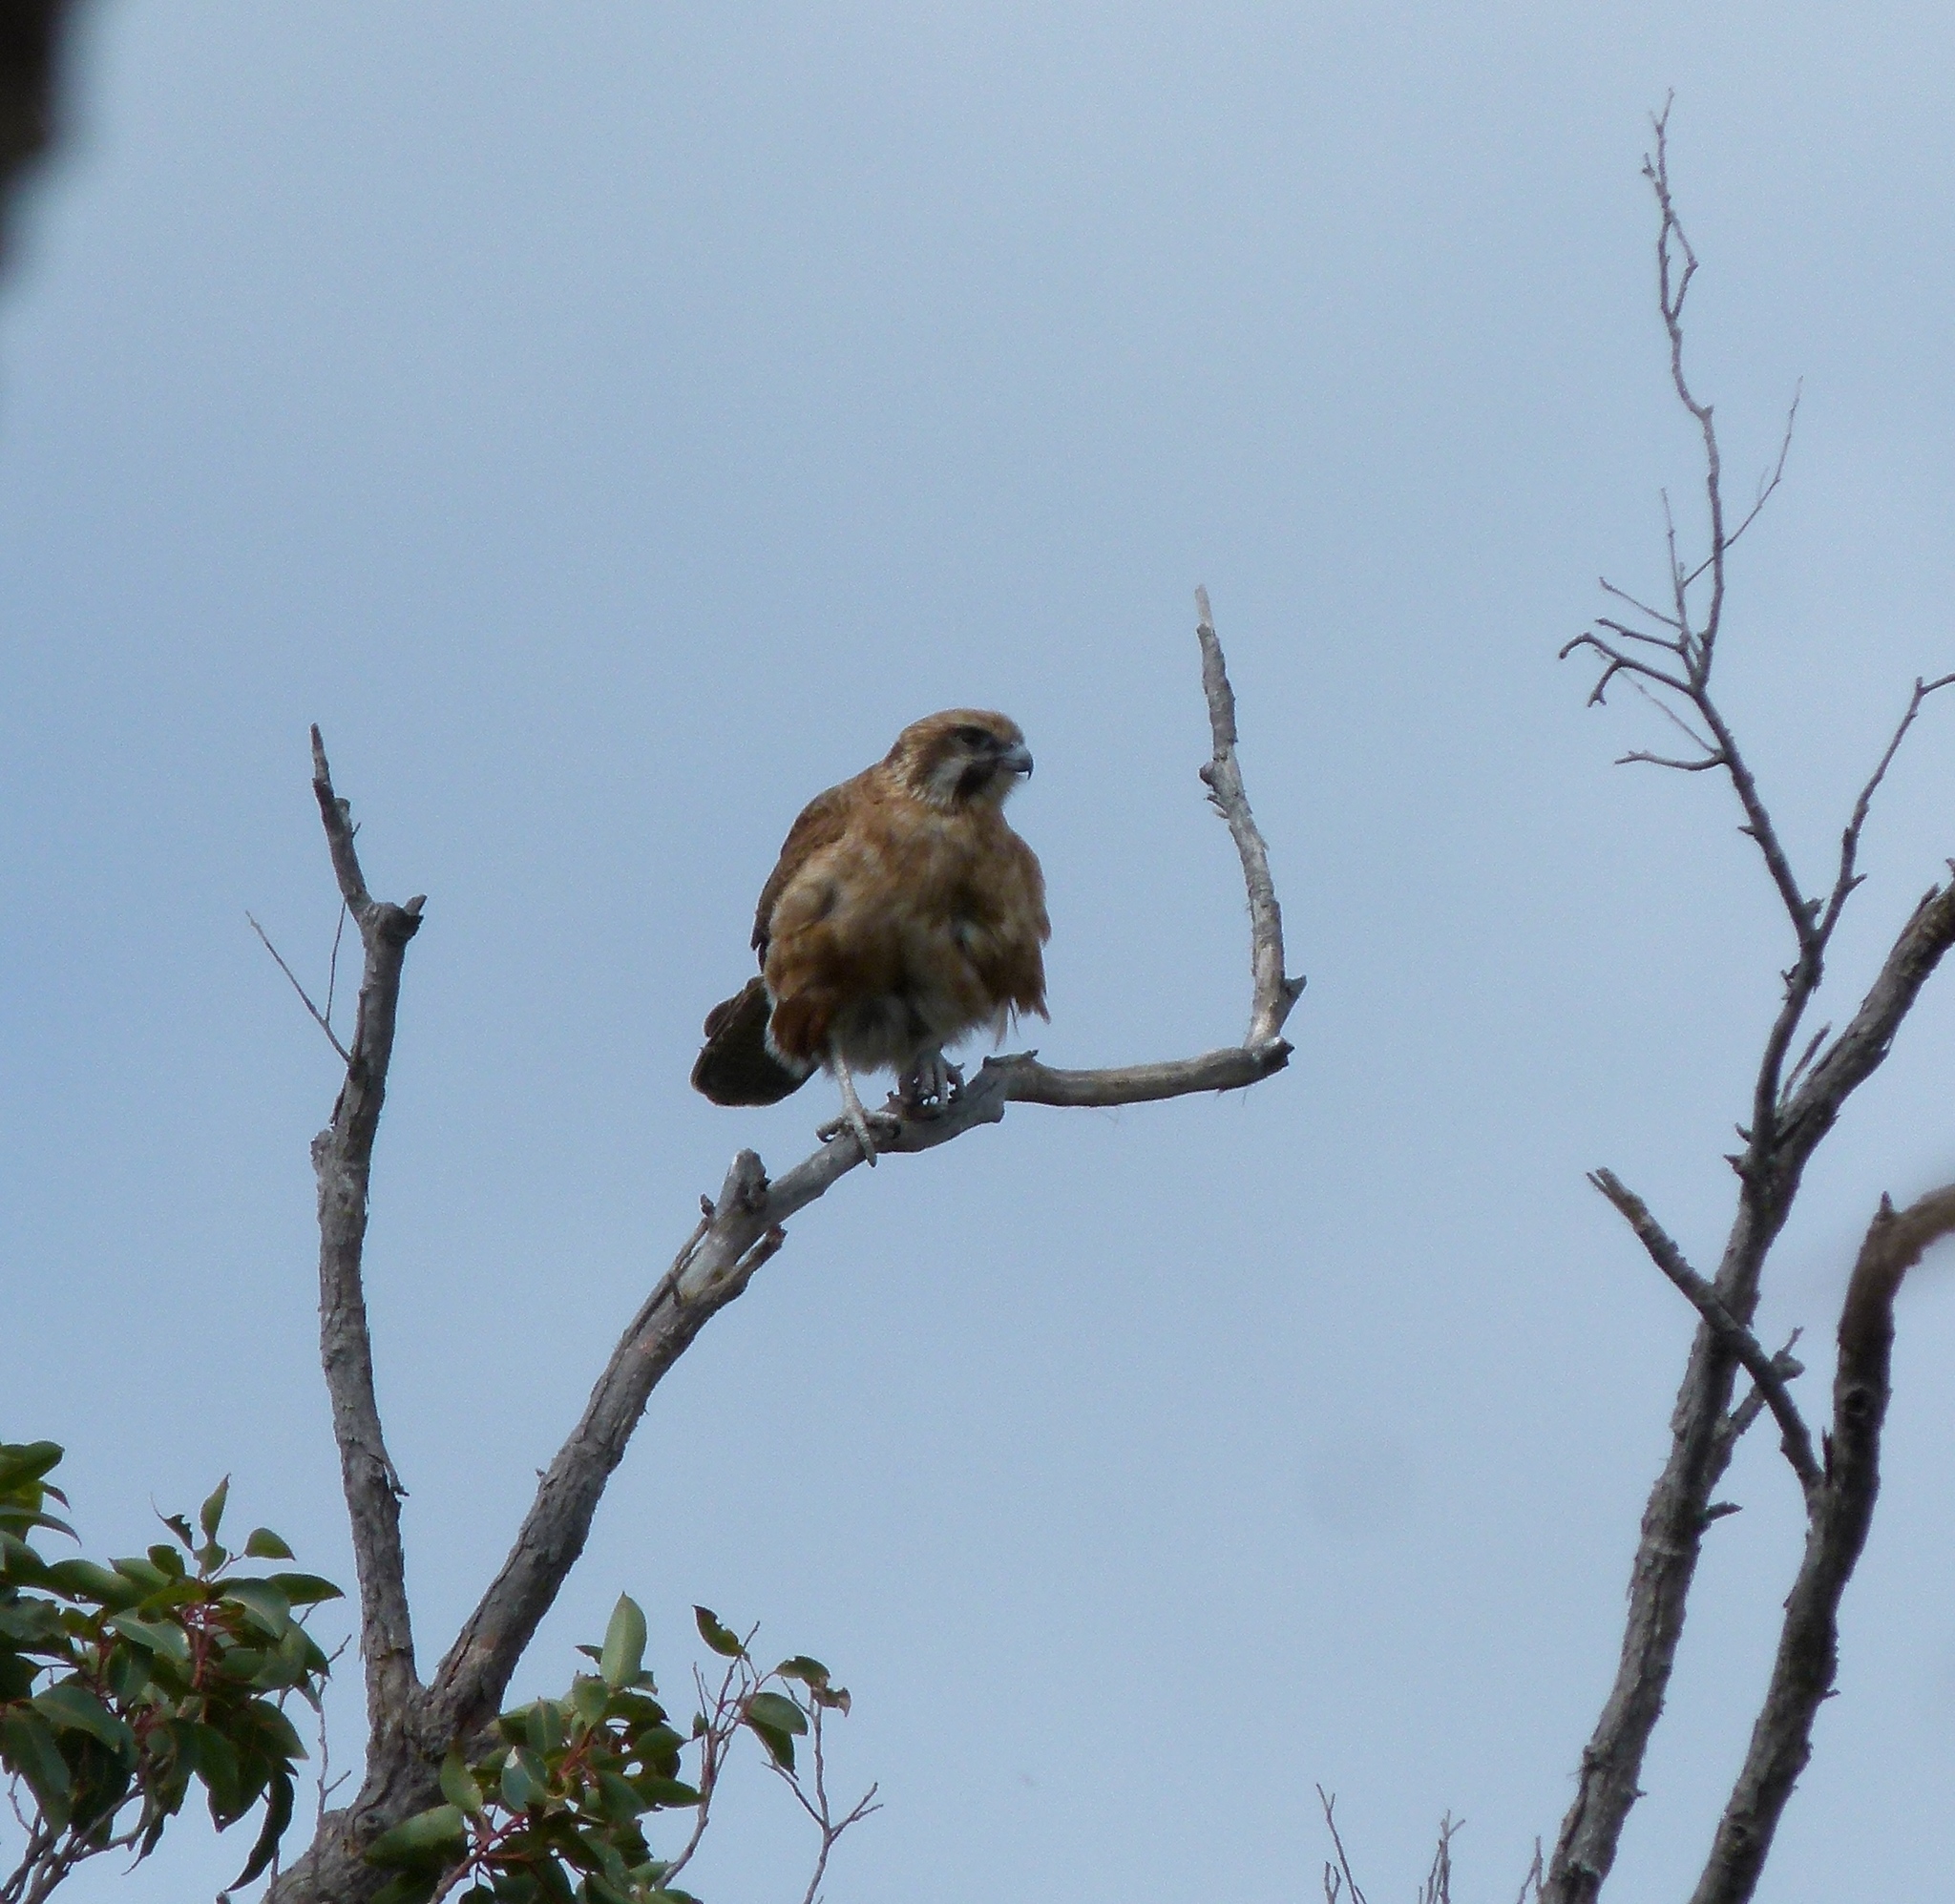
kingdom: Animalia
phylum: Chordata
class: Aves
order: Falconiformes
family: Falconidae
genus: Falco
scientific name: Falco berigora
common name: Brown falcon
